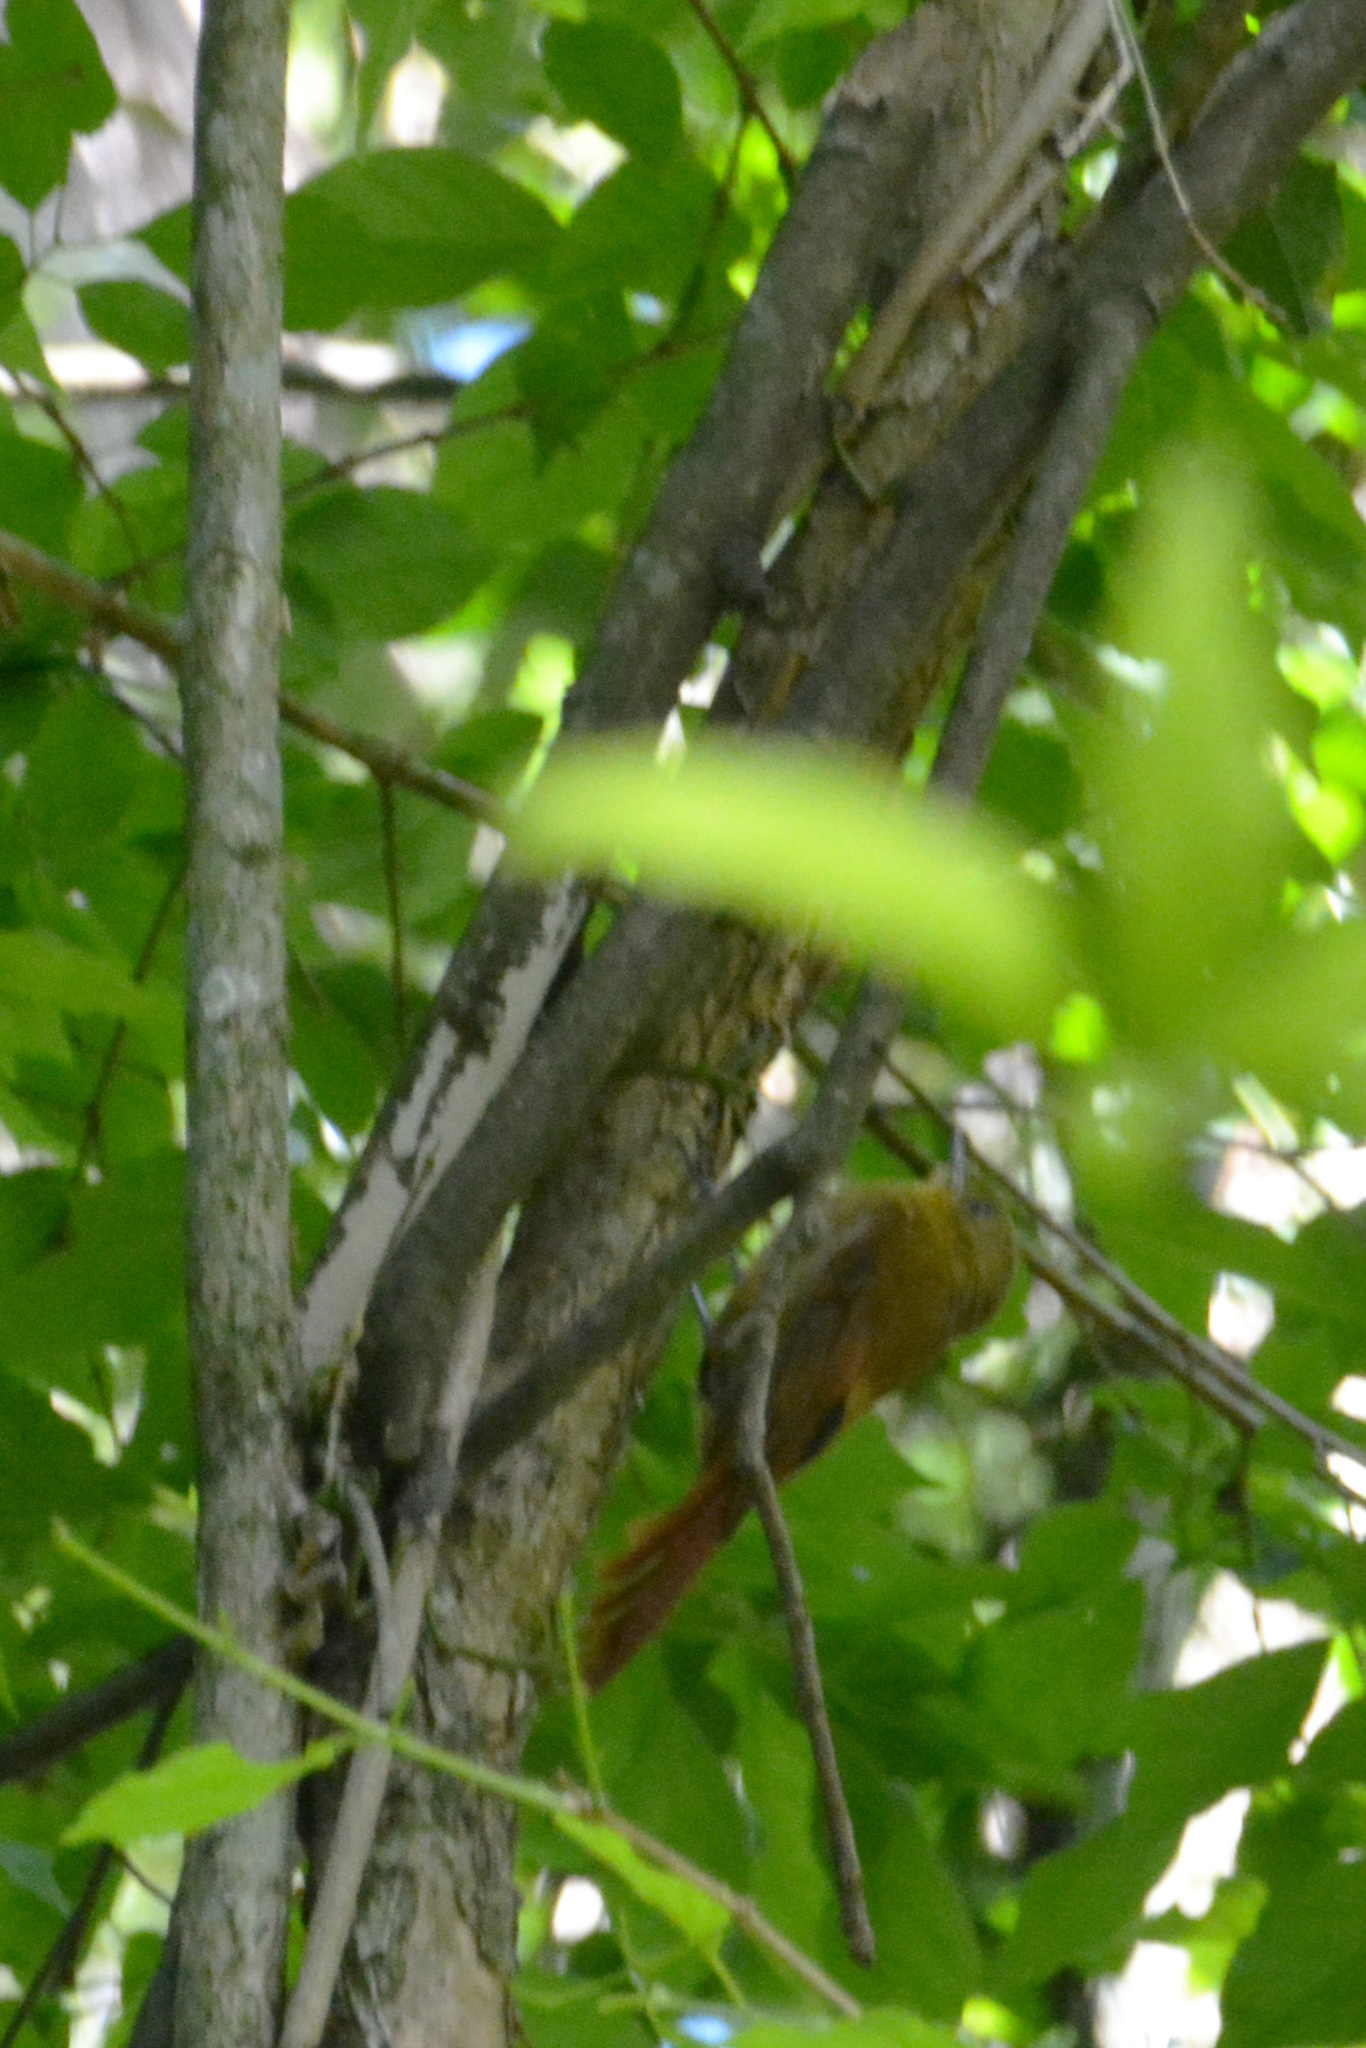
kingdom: Animalia
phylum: Chordata
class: Aves
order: Passeriformes
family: Furnariidae
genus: Sittasomus
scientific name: Sittasomus griseicapillus
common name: Olivaceous woodcreeper
